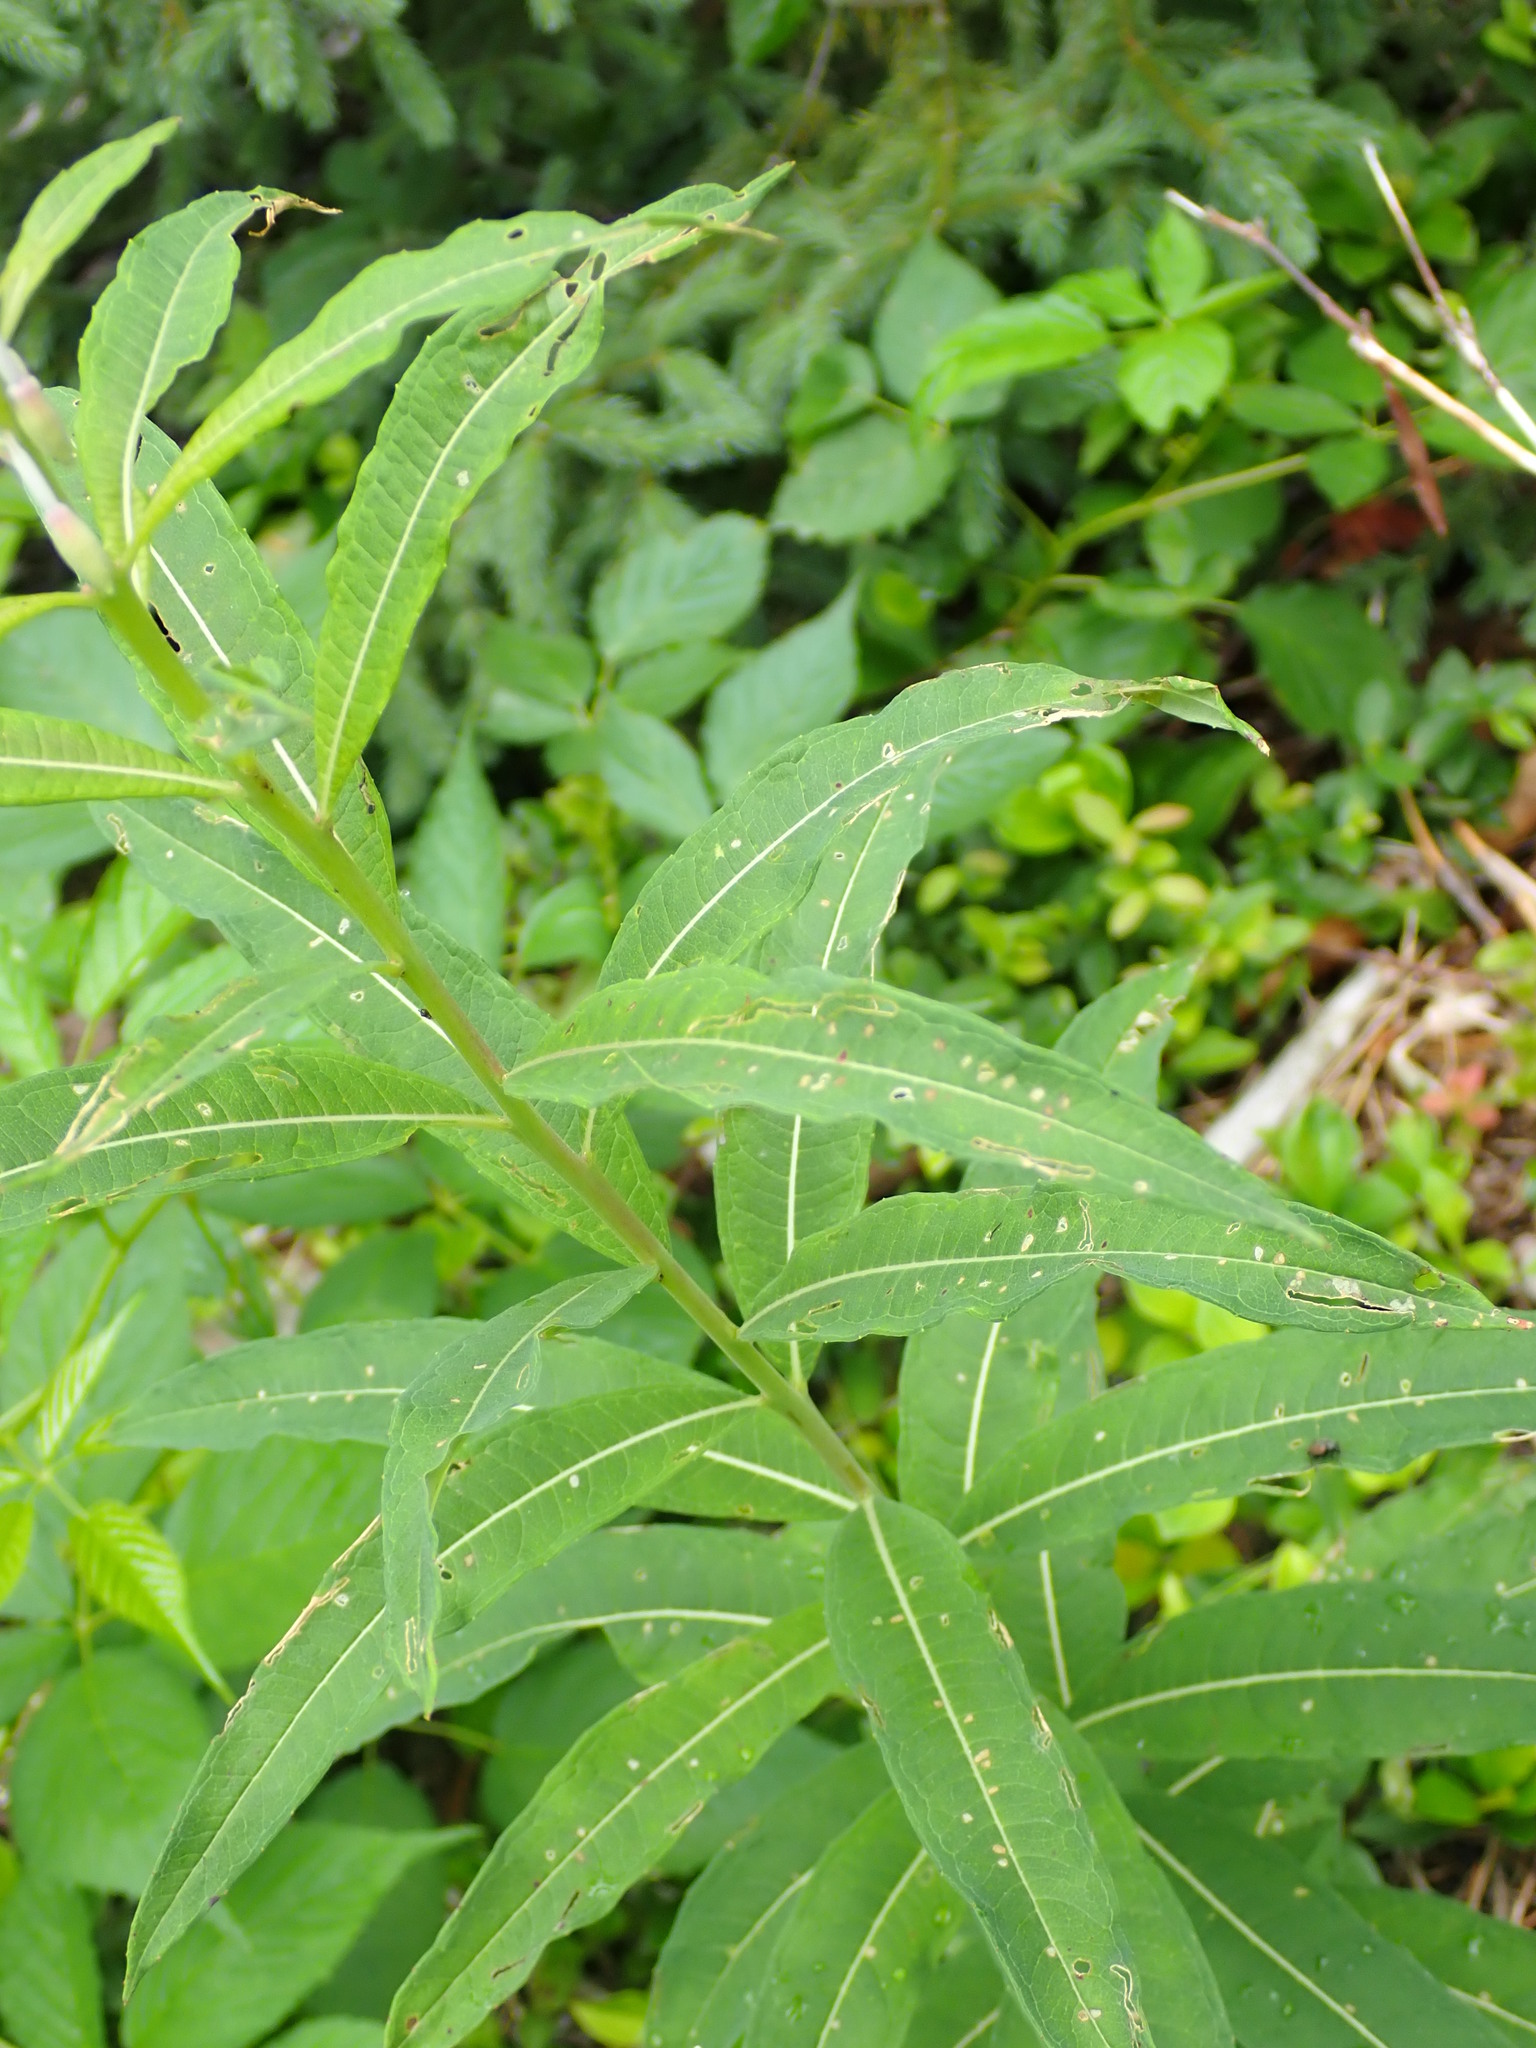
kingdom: Plantae
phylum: Tracheophyta
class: Magnoliopsida
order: Myrtales
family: Onagraceae
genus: Chamaenerion
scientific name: Chamaenerion angustifolium
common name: Fireweed
